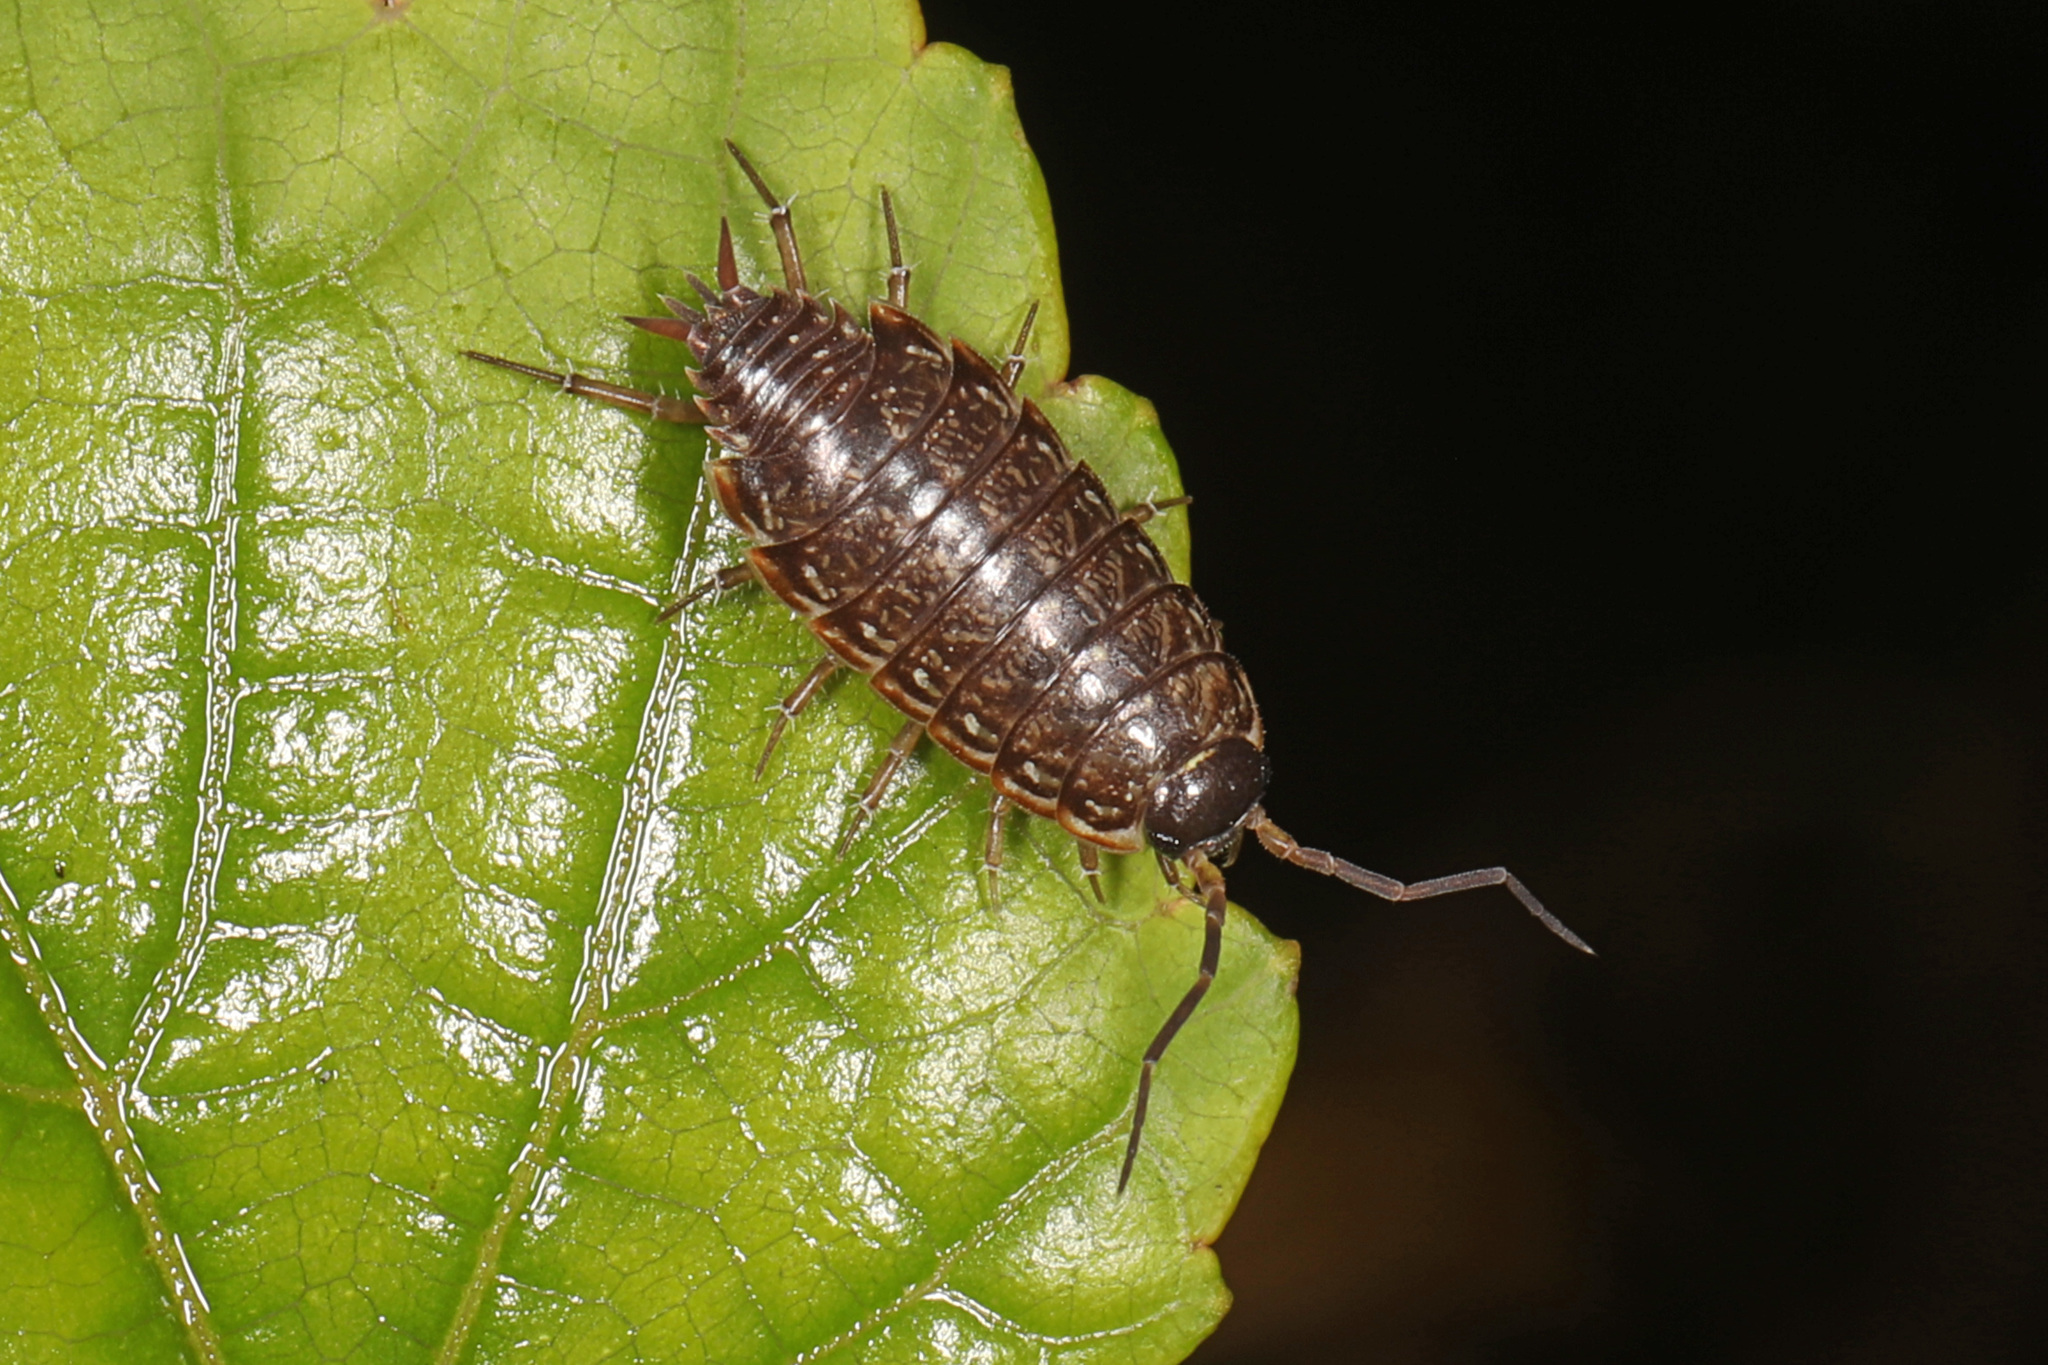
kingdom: Animalia
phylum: Arthropoda
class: Malacostraca
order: Isopoda
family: Philosciidae
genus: Philoscia
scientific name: Philoscia muscorum
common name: Common striped woodlouse
